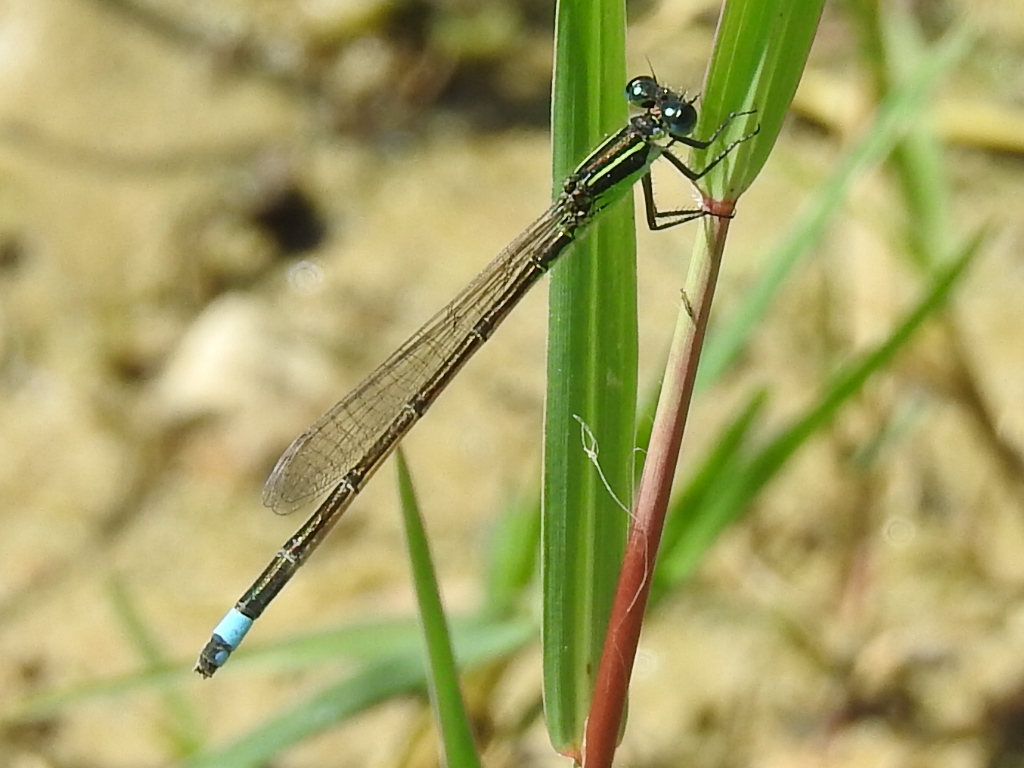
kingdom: Animalia
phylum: Arthropoda
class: Insecta
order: Odonata
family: Coenagrionidae
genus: Ischnura
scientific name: Ischnura ramburii
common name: Rambur's forktail
